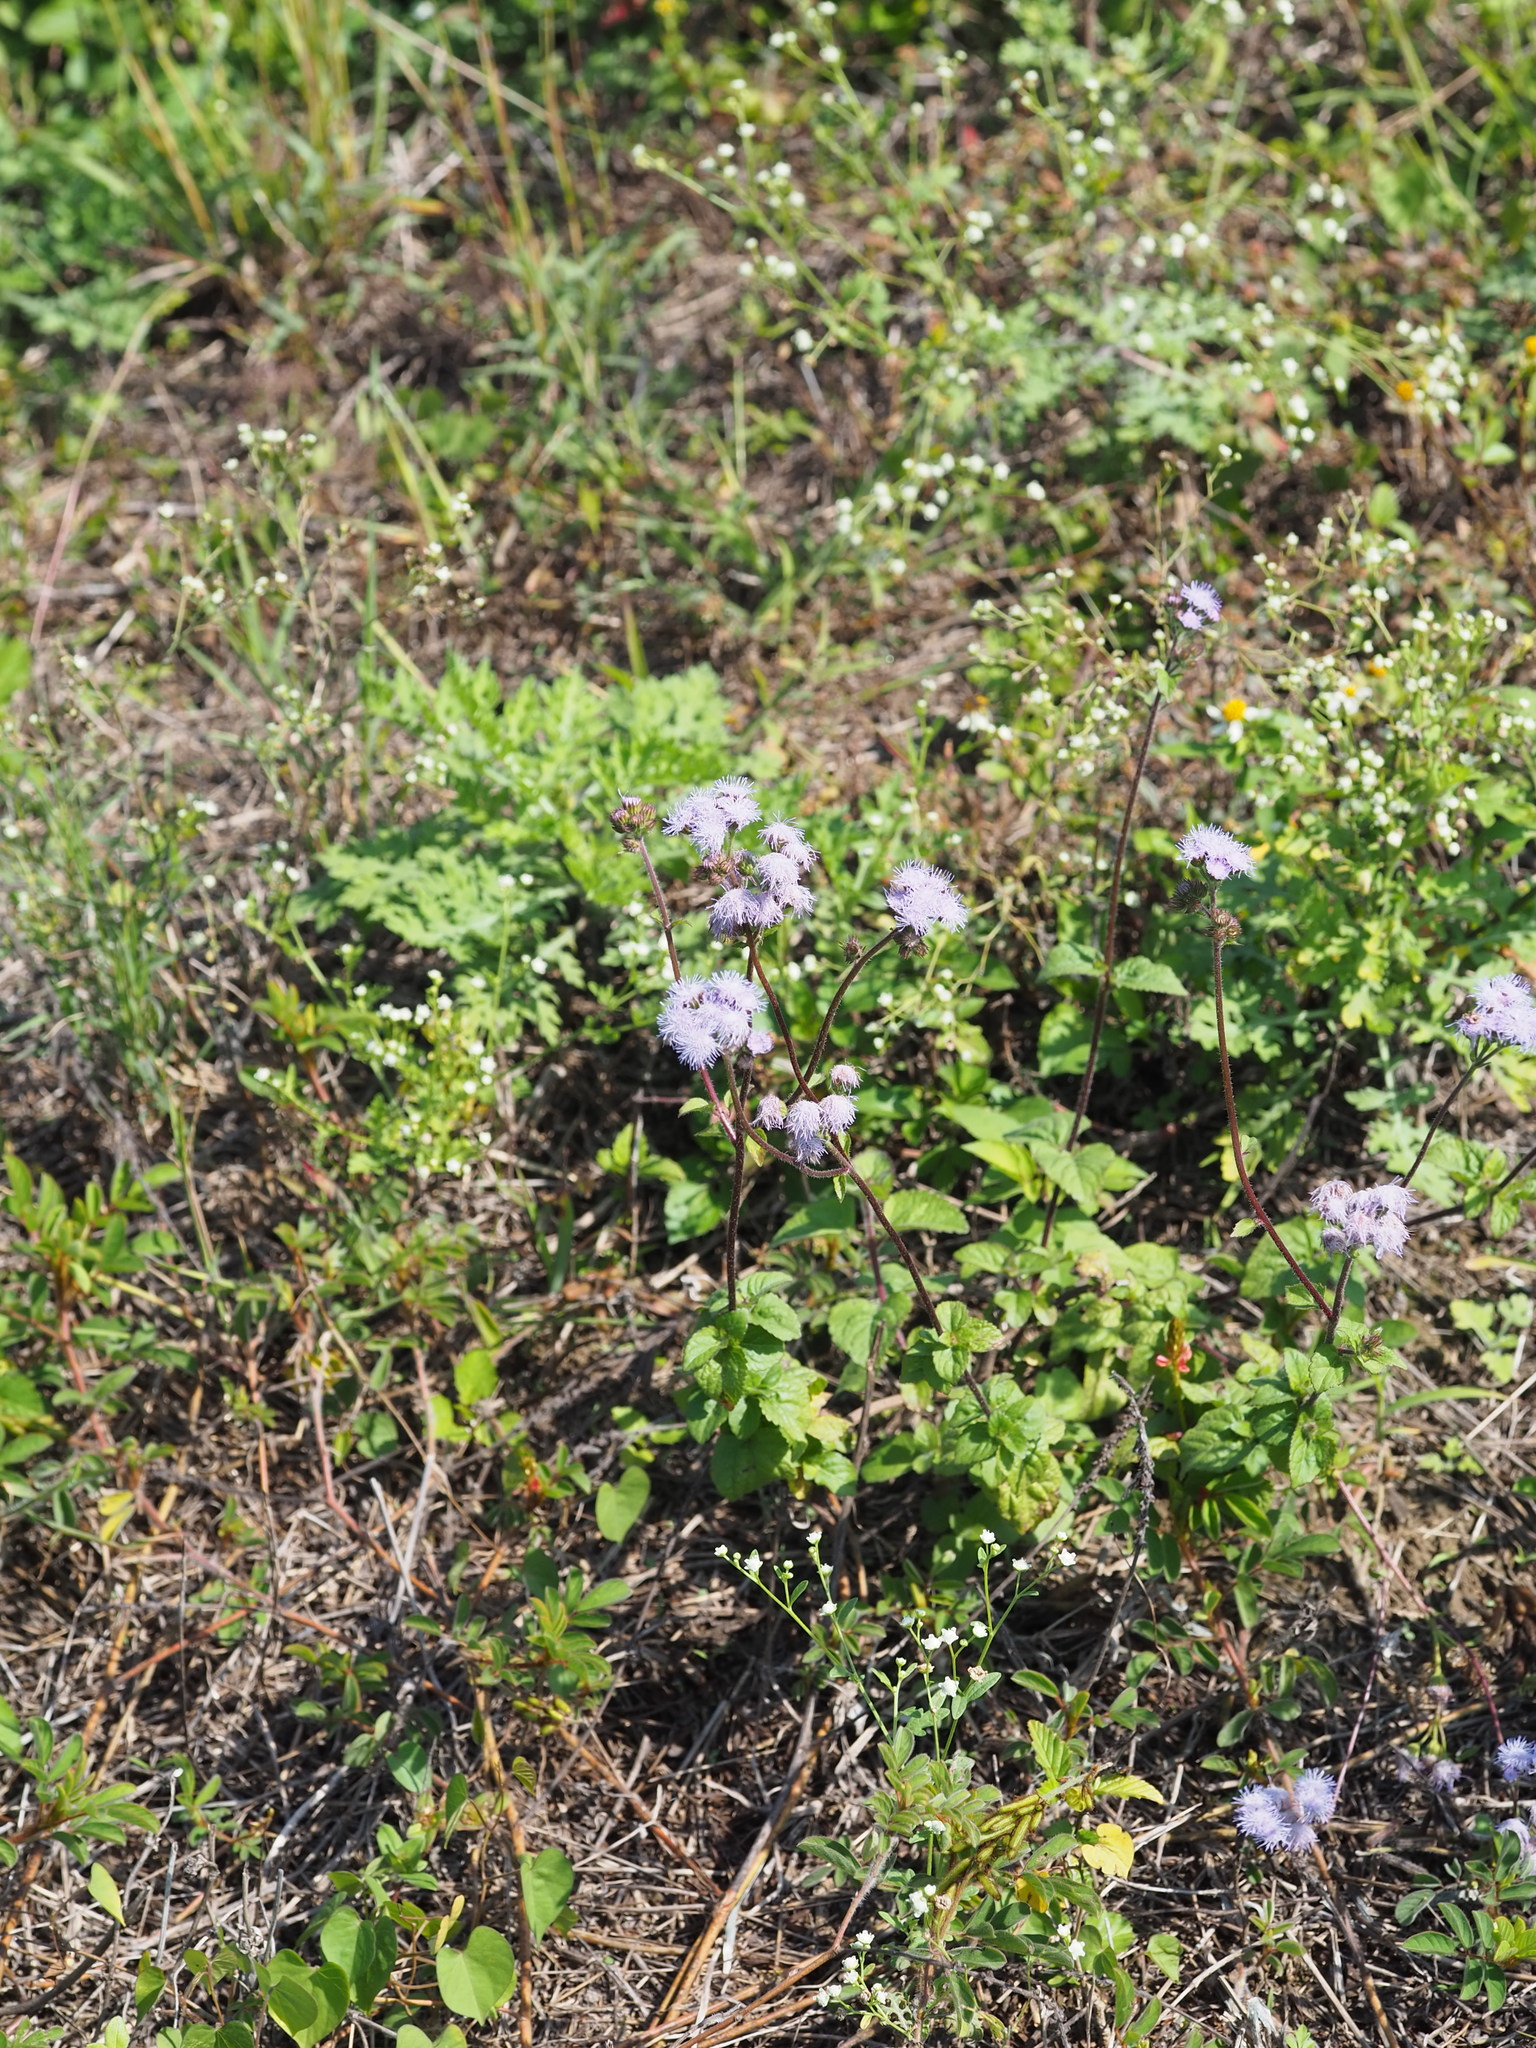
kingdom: Plantae
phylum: Tracheophyta
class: Magnoliopsida
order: Asterales
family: Asteraceae
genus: Ageratum
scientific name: Ageratum houstonianum
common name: Bluemink
